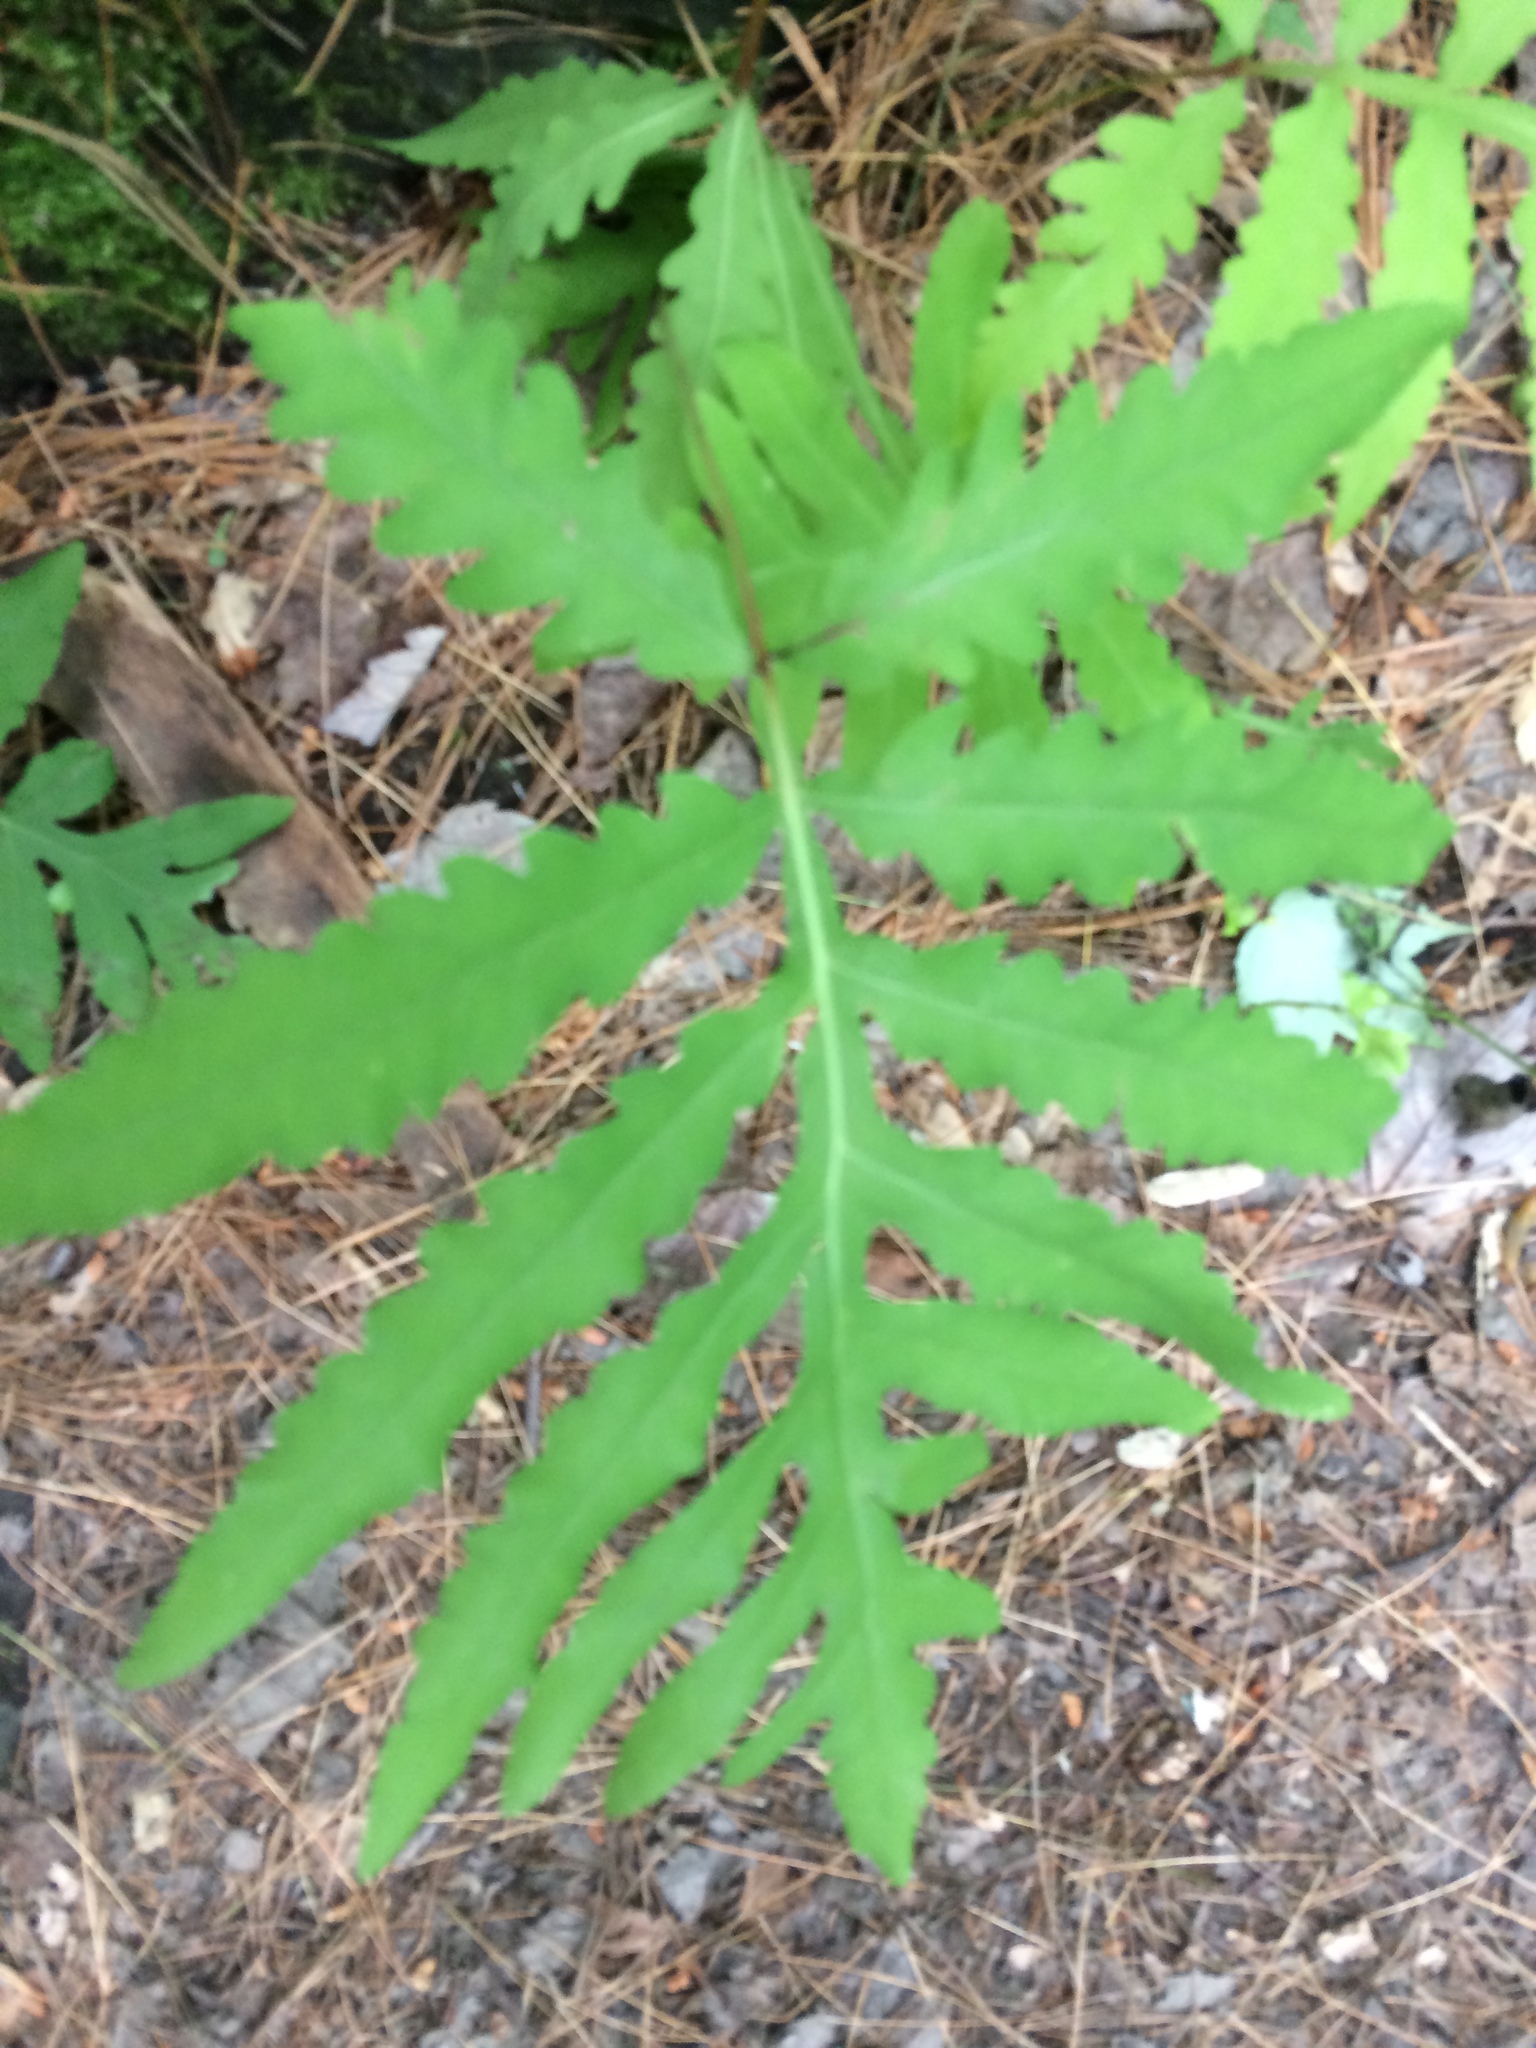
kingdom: Plantae
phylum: Tracheophyta
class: Polypodiopsida
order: Polypodiales
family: Onocleaceae
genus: Onoclea
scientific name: Onoclea sensibilis
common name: Sensitive fern
